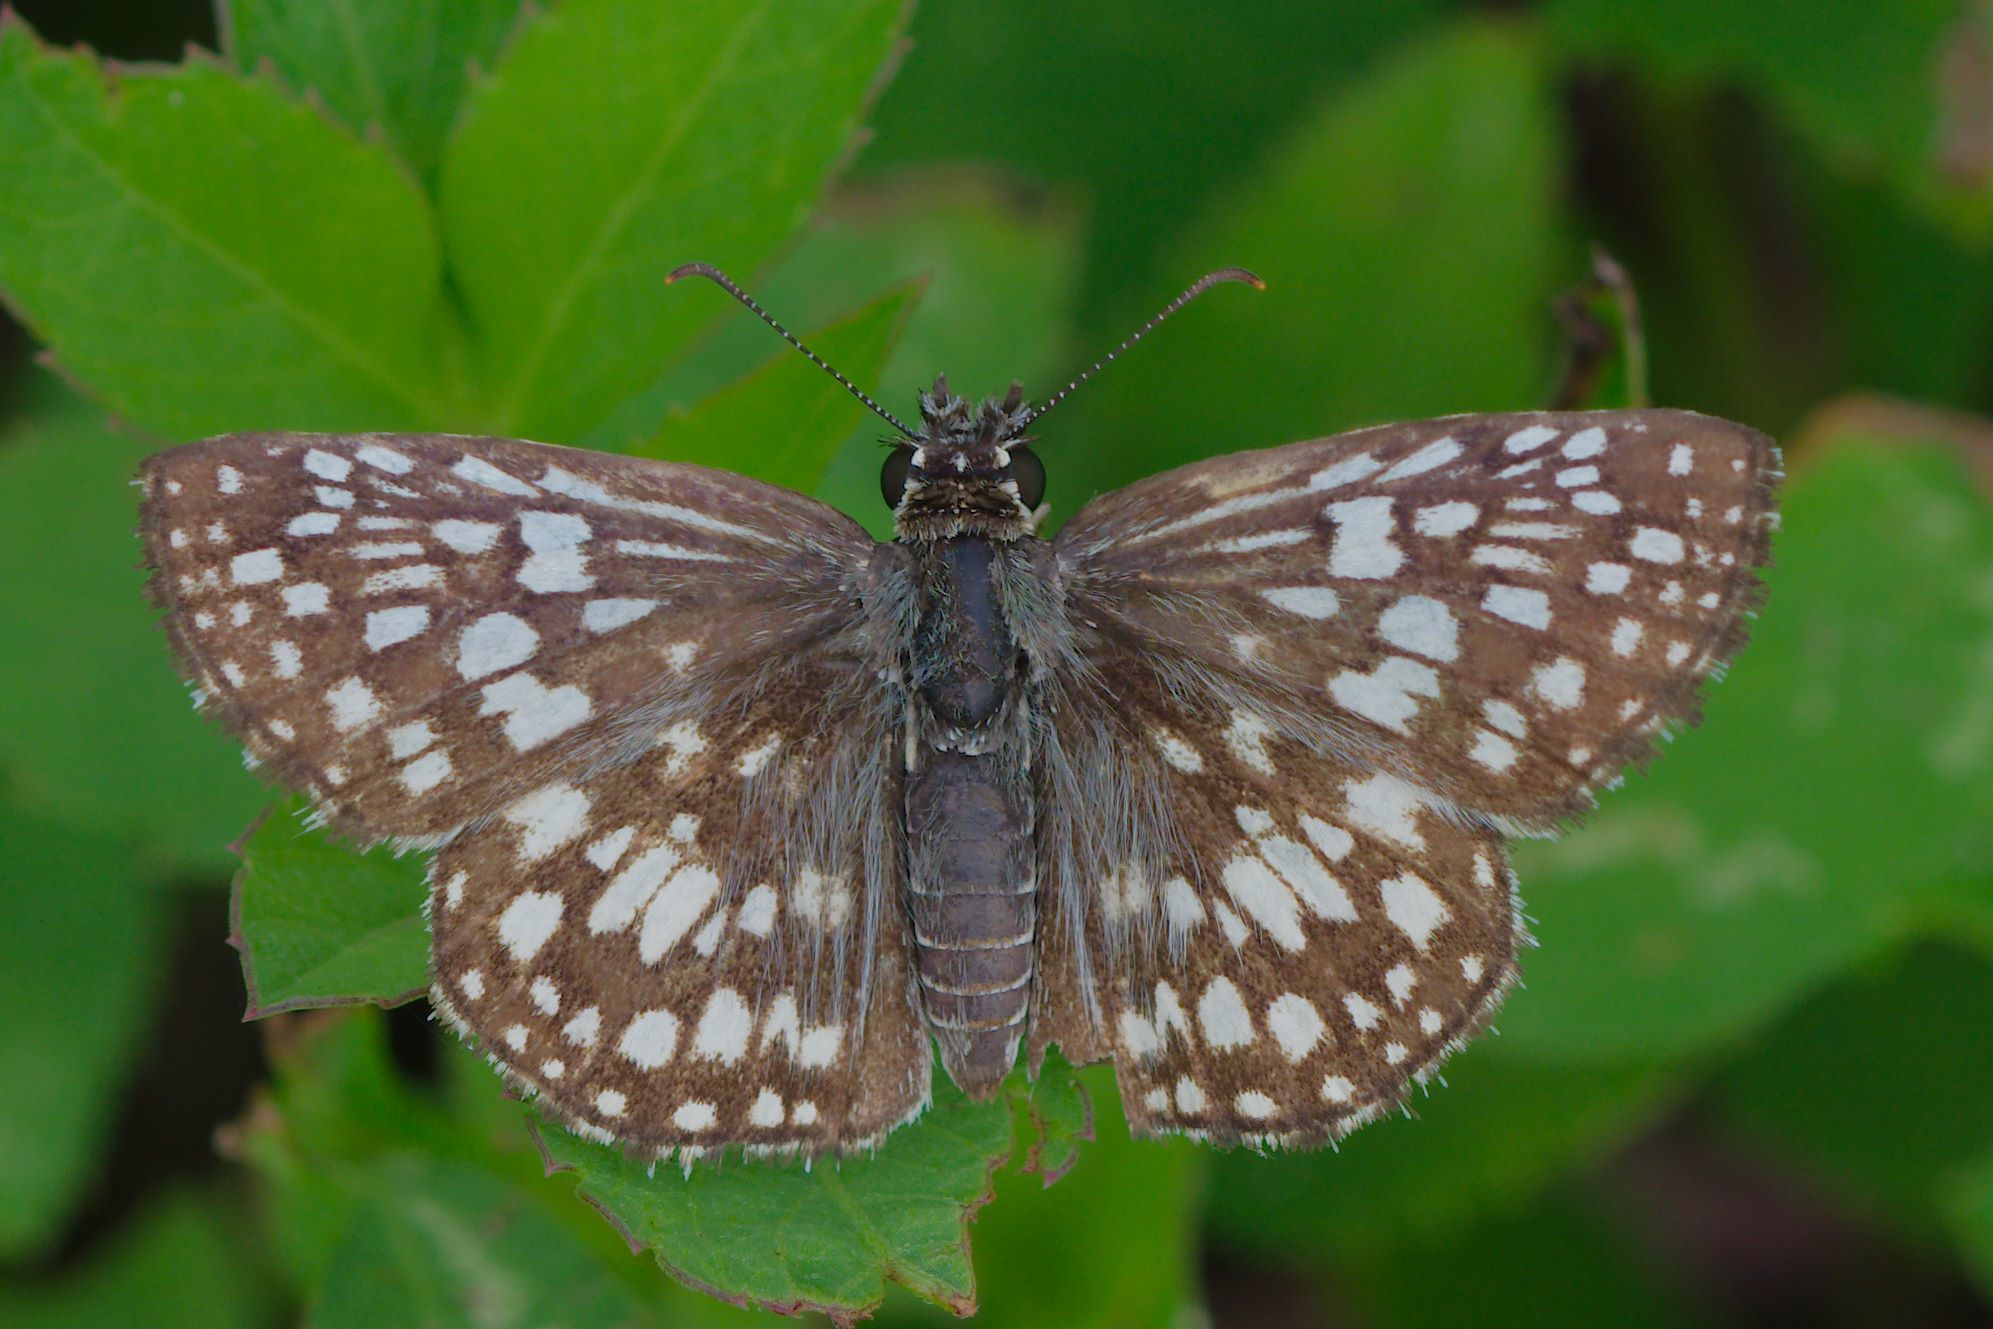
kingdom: Animalia
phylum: Arthropoda
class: Insecta
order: Lepidoptera
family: Hesperiidae
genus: Pyrgus
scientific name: Pyrgus oileus
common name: Tropical checkered-skipper
